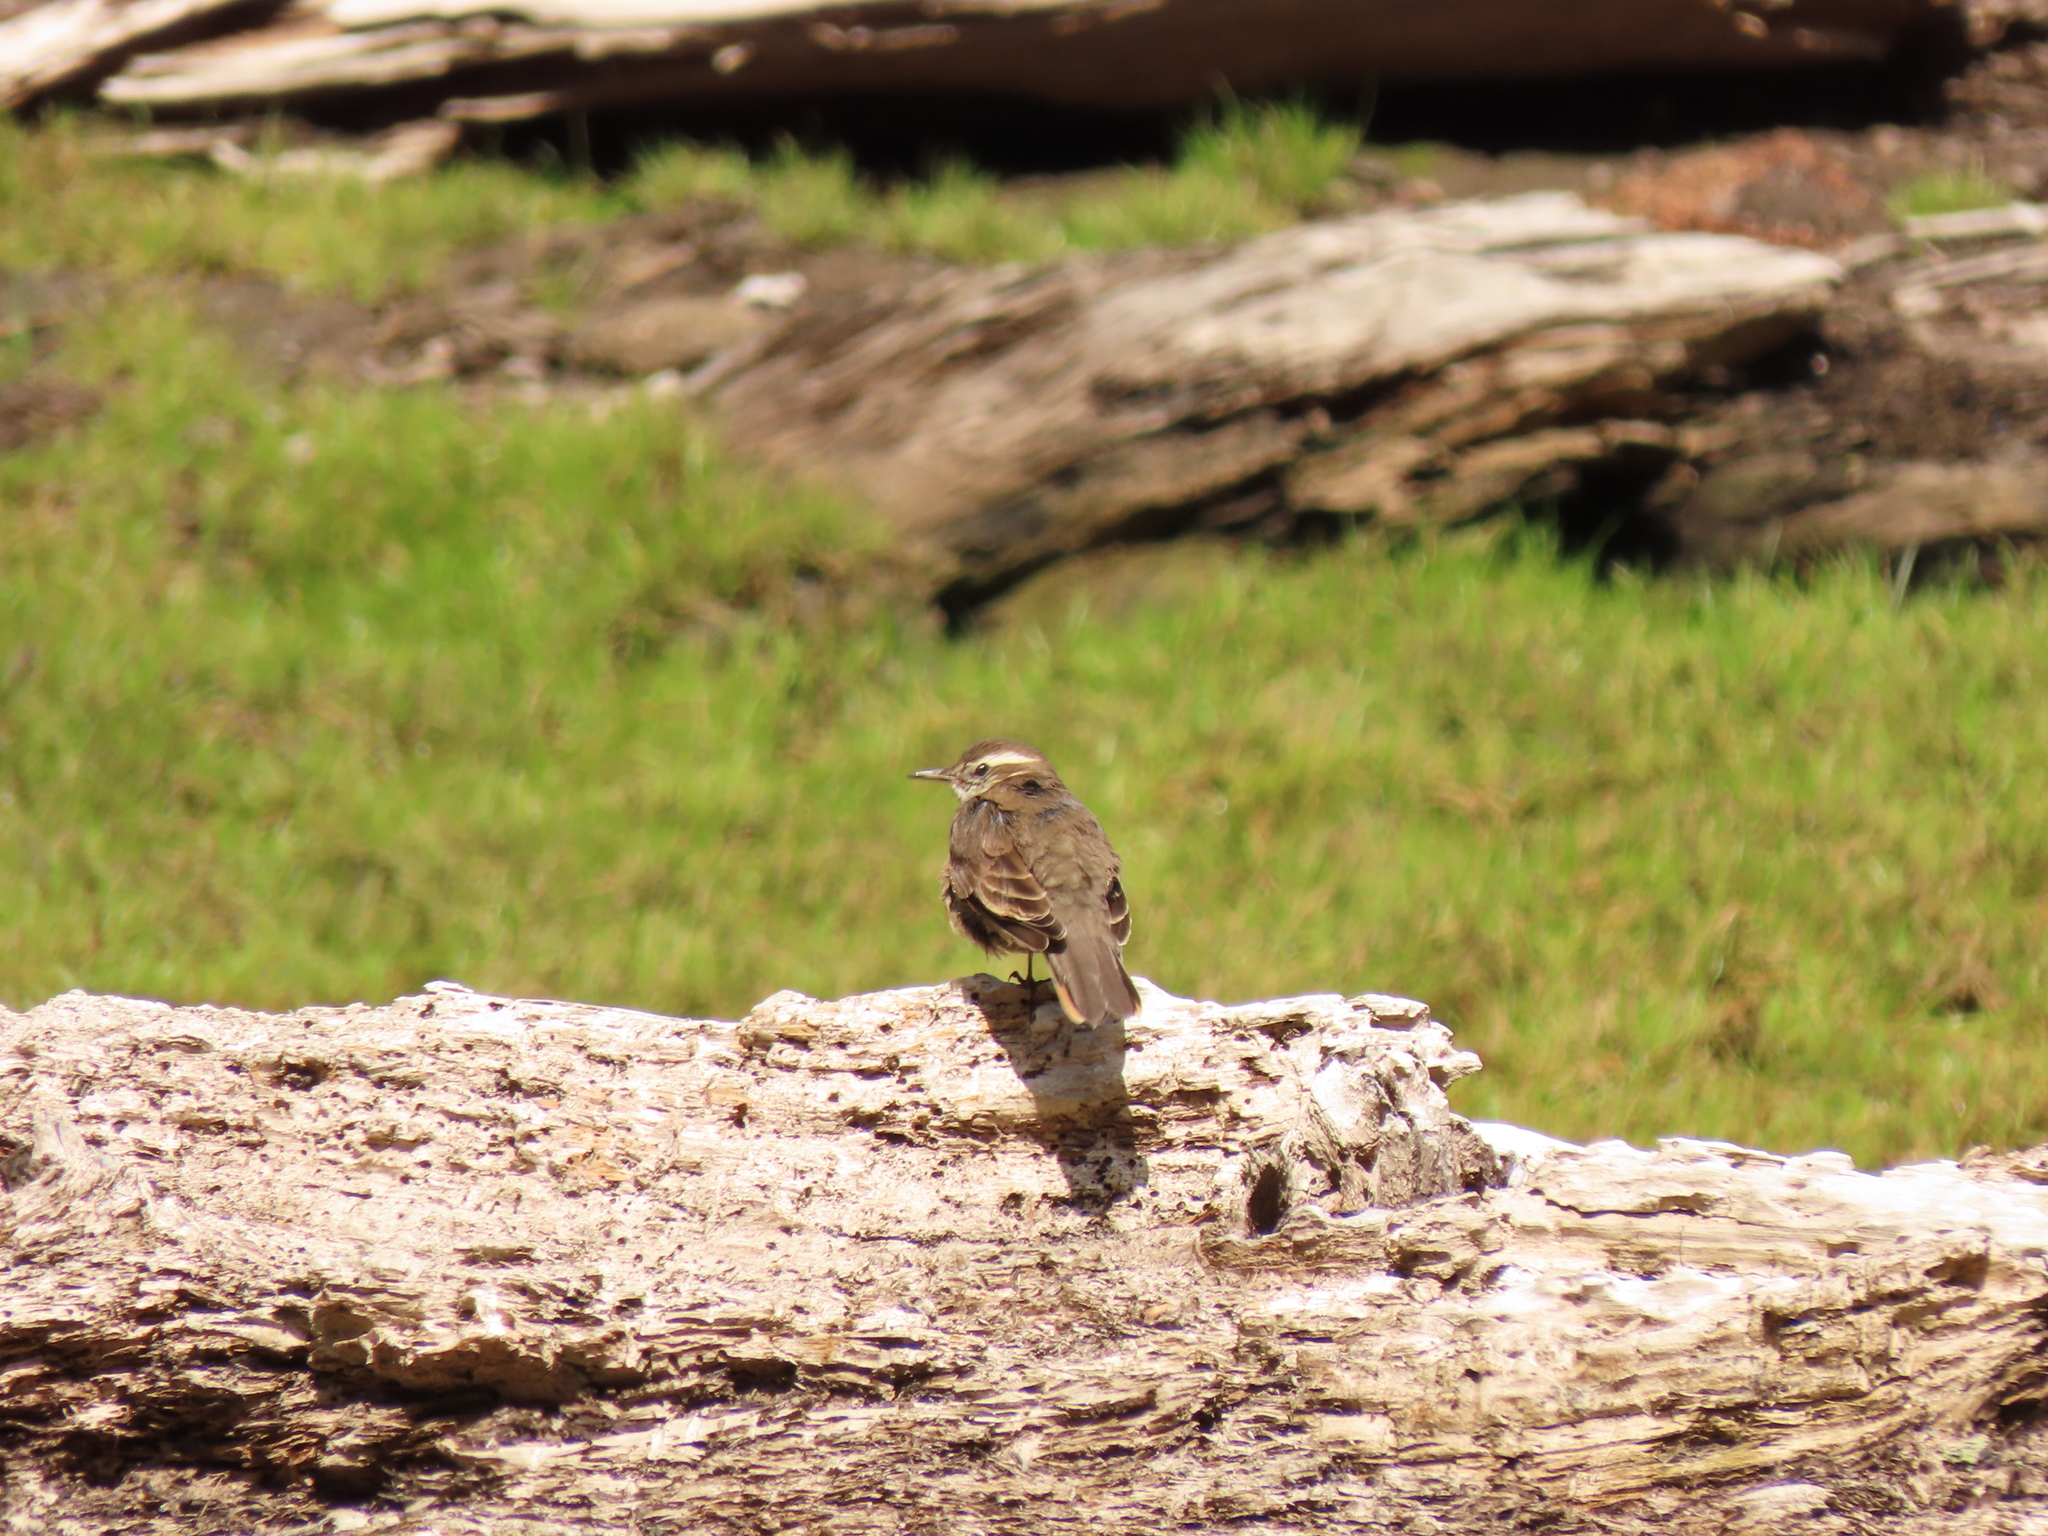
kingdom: Animalia
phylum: Chordata
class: Aves
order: Passeriformes
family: Furnariidae
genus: Cinclodes
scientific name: Cinclodes fuscus
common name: Buff-winged cinclodes
